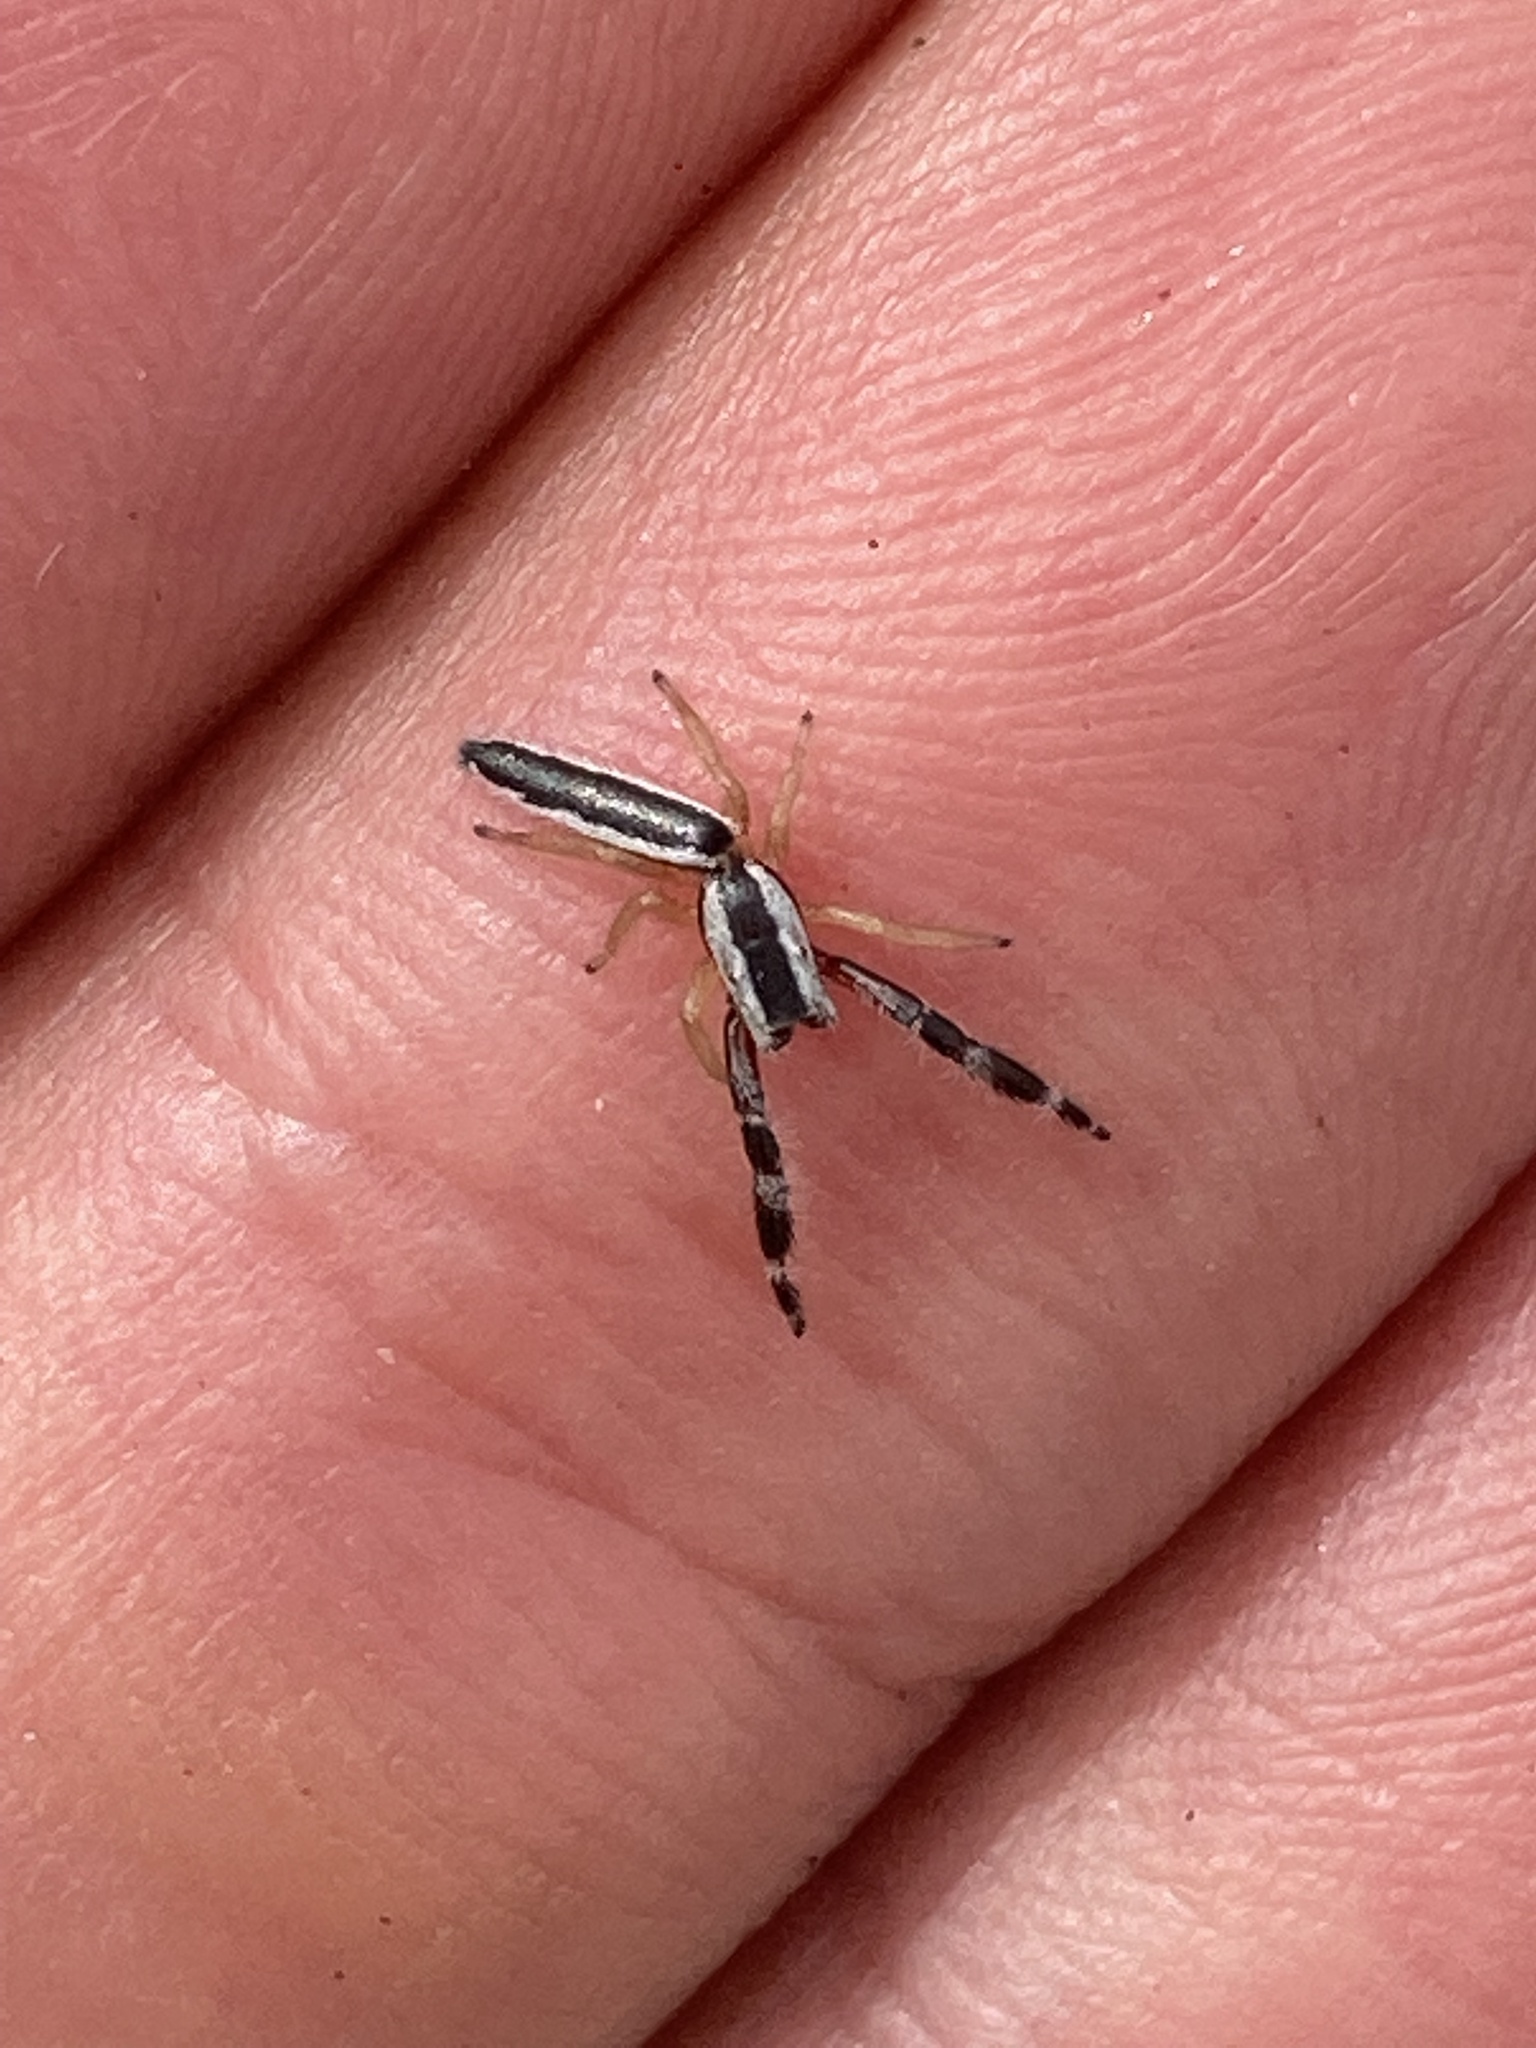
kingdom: Animalia
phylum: Arthropoda
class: Arachnida
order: Araneae
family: Salticidae
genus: Marpissa
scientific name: Marpissa pikei
